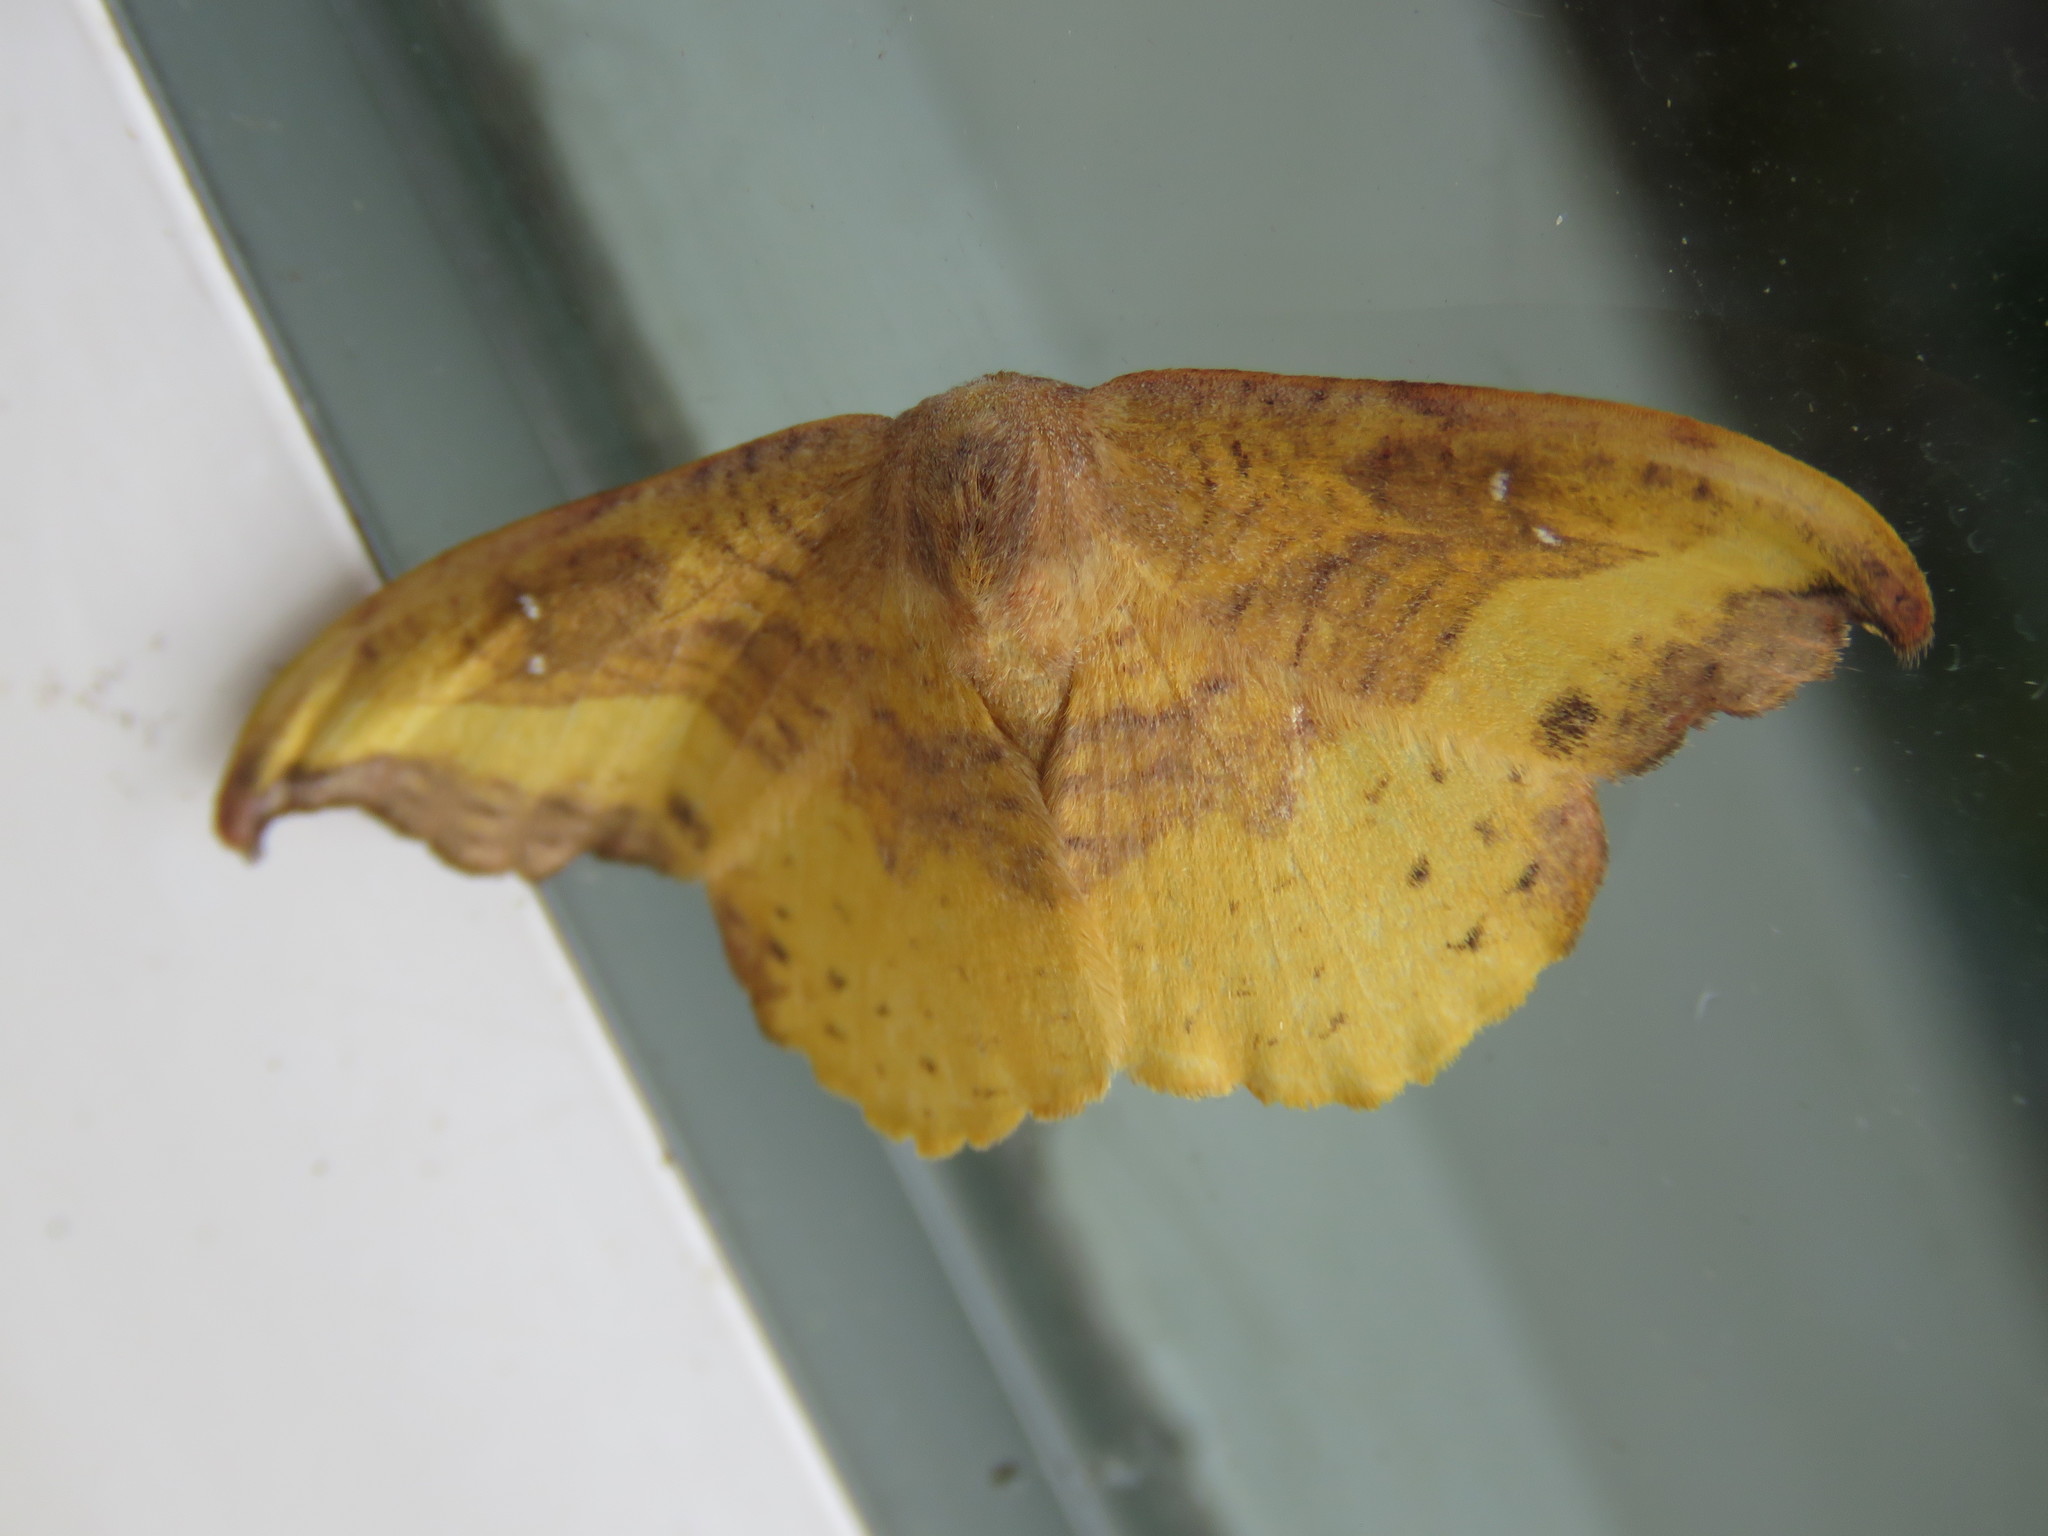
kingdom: Animalia
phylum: Arthropoda
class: Insecta
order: Lepidoptera
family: Drepanidae
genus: Oreta
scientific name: Oreta rosea
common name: Rose hooktip
